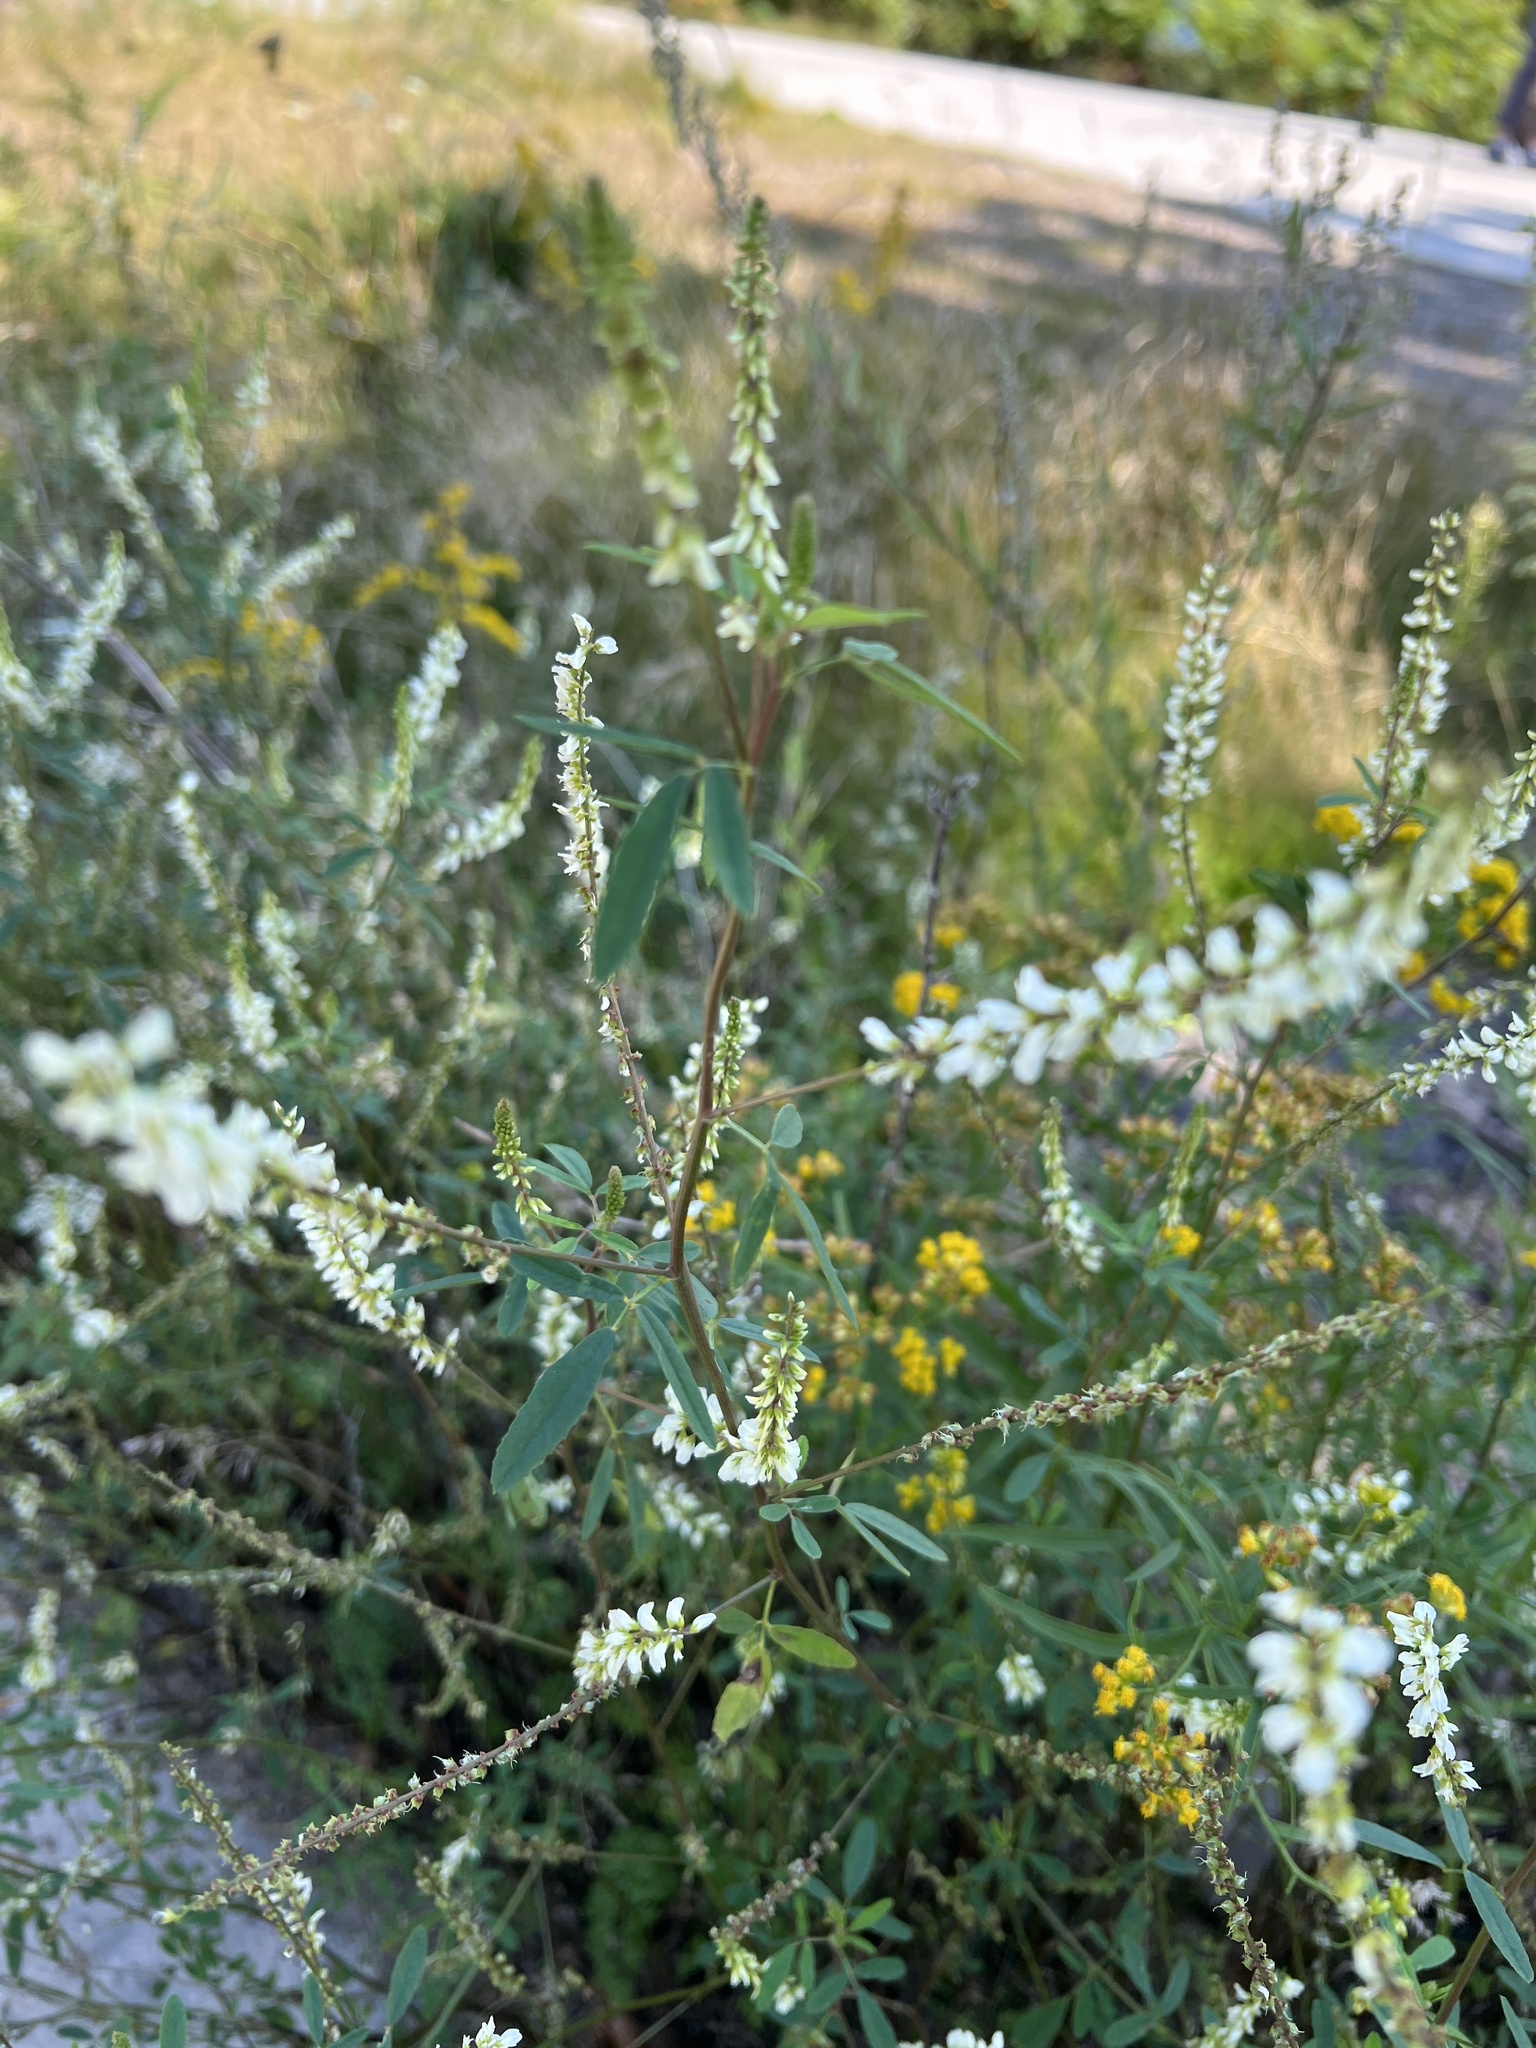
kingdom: Plantae
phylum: Tracheophyta
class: Magnoliopsida
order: Fabales
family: Fabaceae
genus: Melilotus
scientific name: Melilotus albus
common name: White melilot
